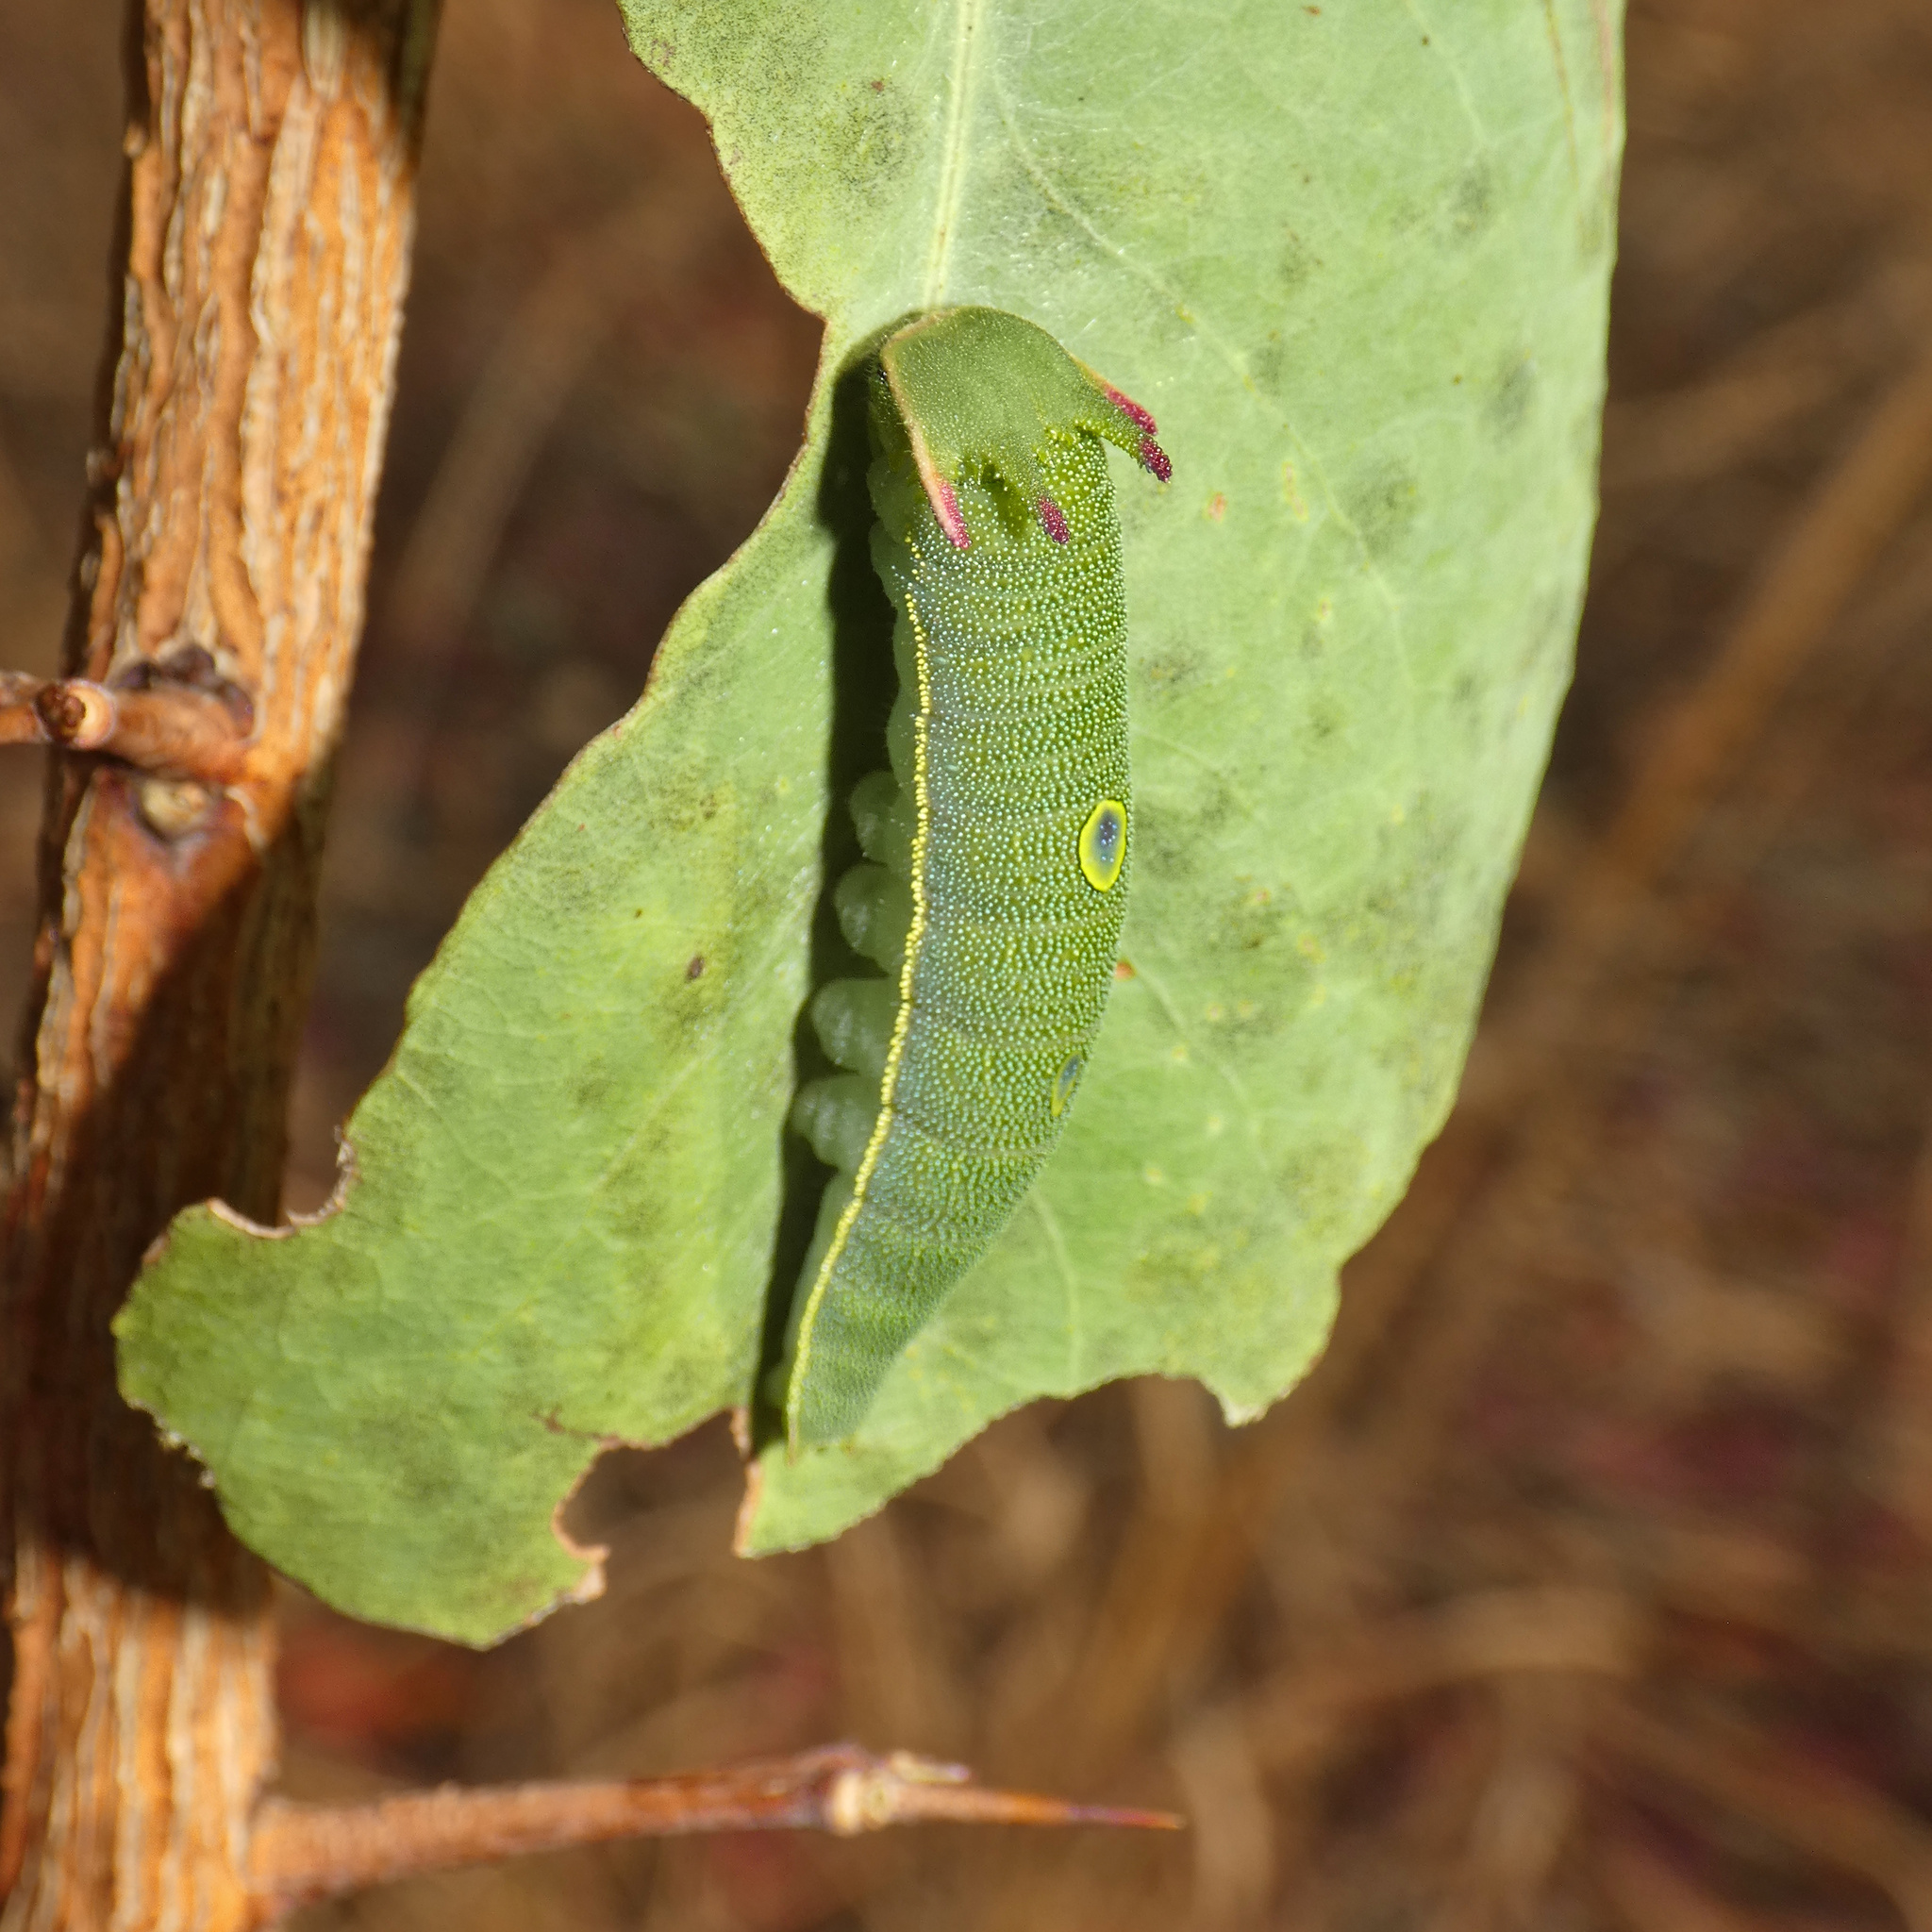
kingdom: Animalia
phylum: Arthropoda
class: Insecta
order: Lepidoptera
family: Nymphalidae
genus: Charaxes
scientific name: Charaxes jasius
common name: Two tailed pasha
